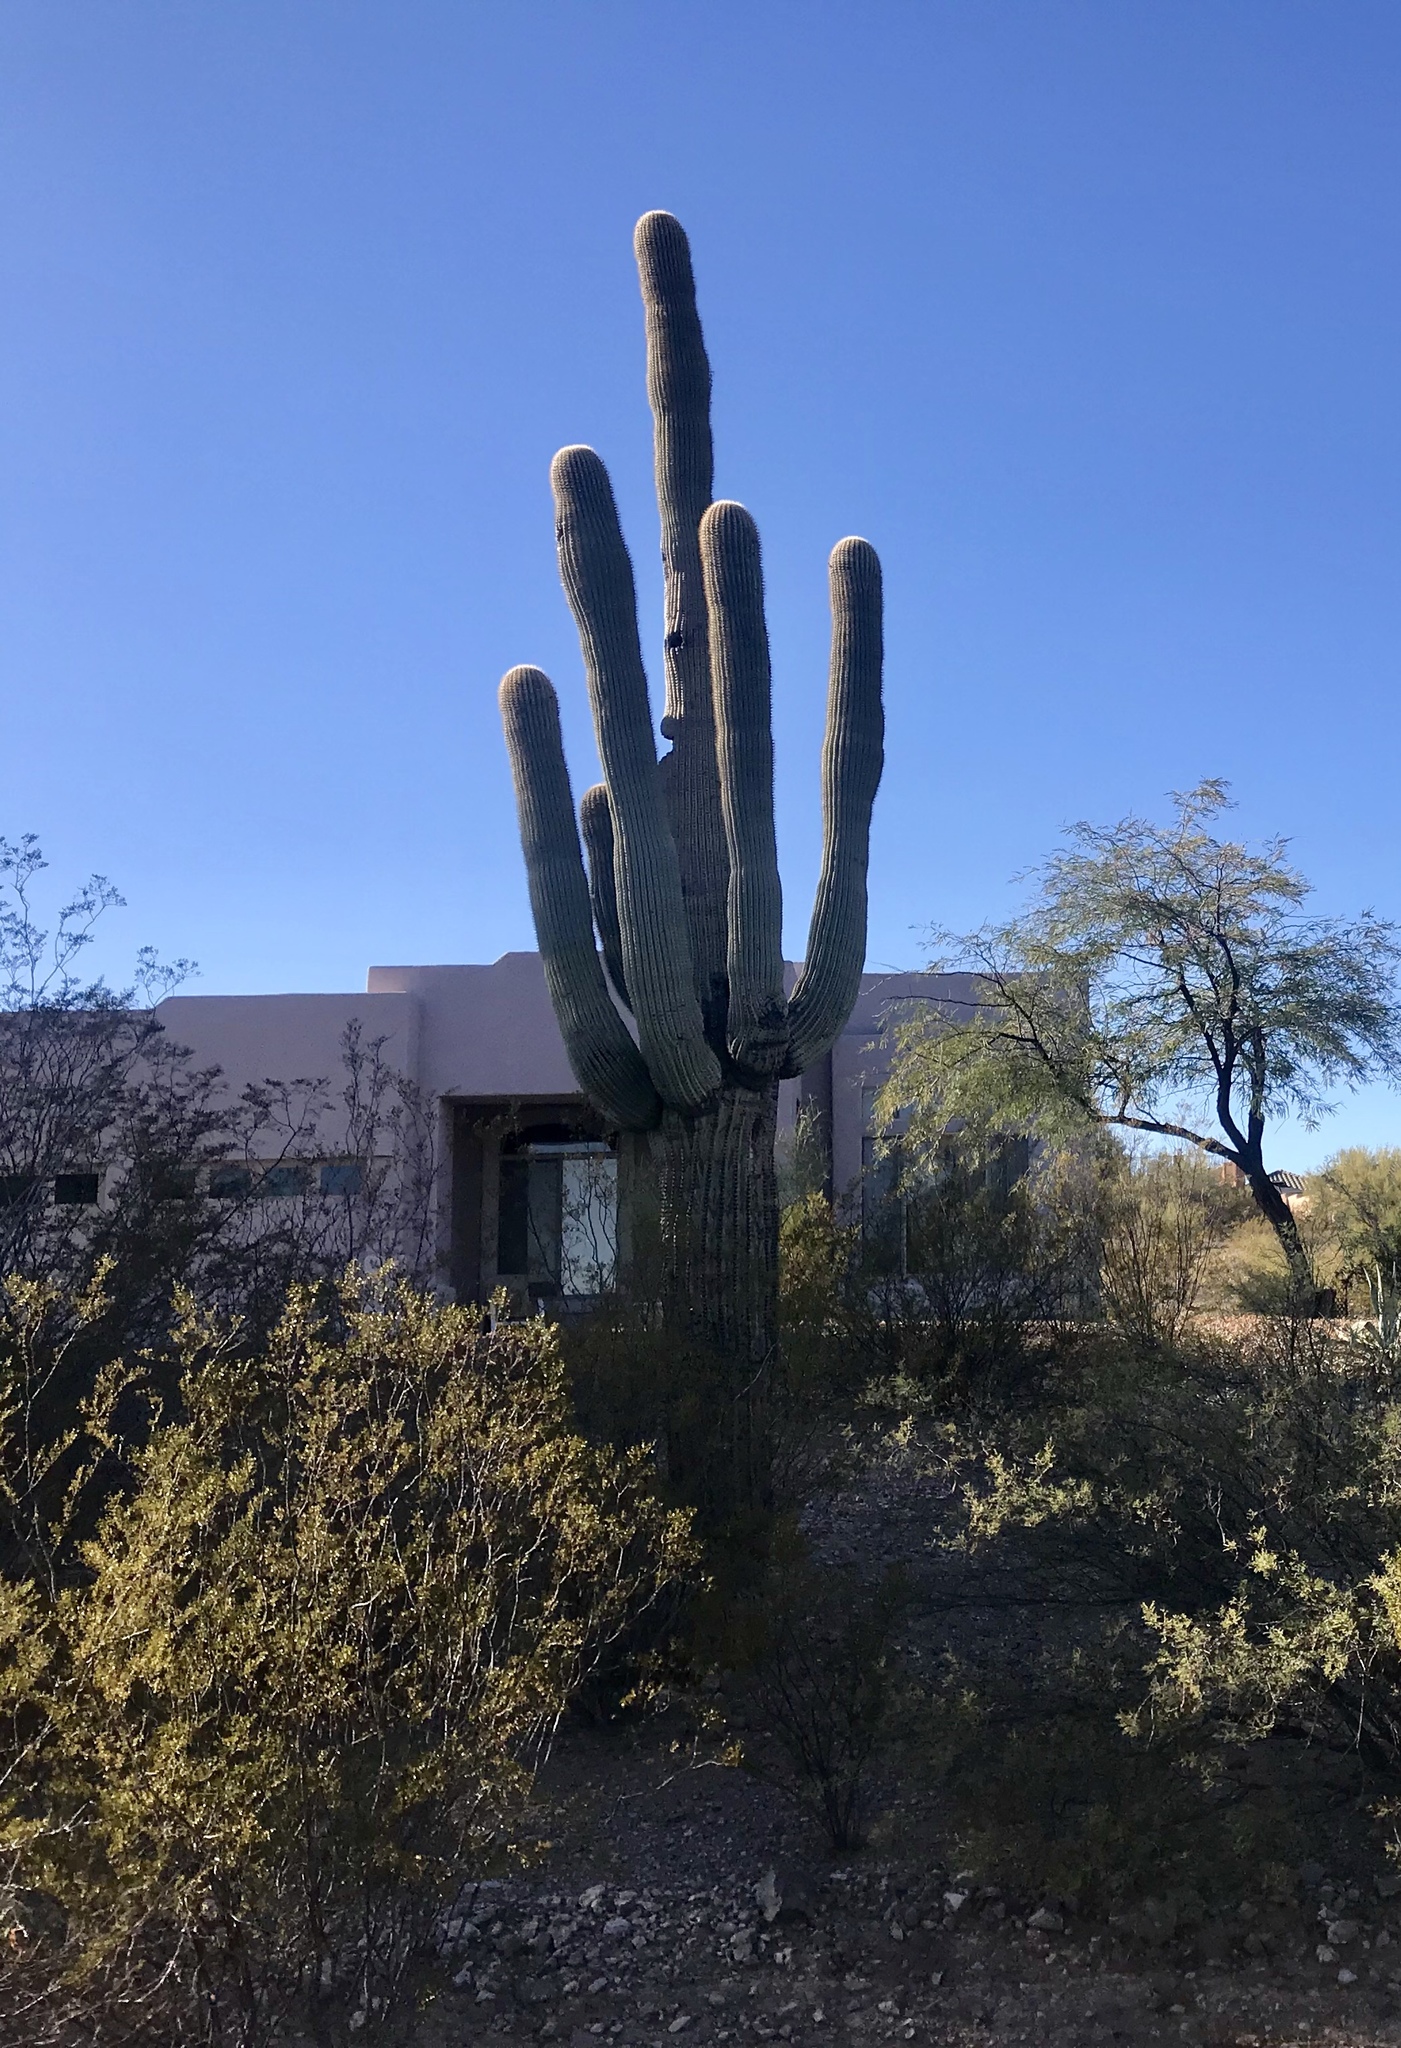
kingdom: Plantae
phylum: Tracheophyta
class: Magnoliopsida
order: Caryophyllales
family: Cactaceae
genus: Carnegiea
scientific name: Carnegiea gigantea
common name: Saguaro
